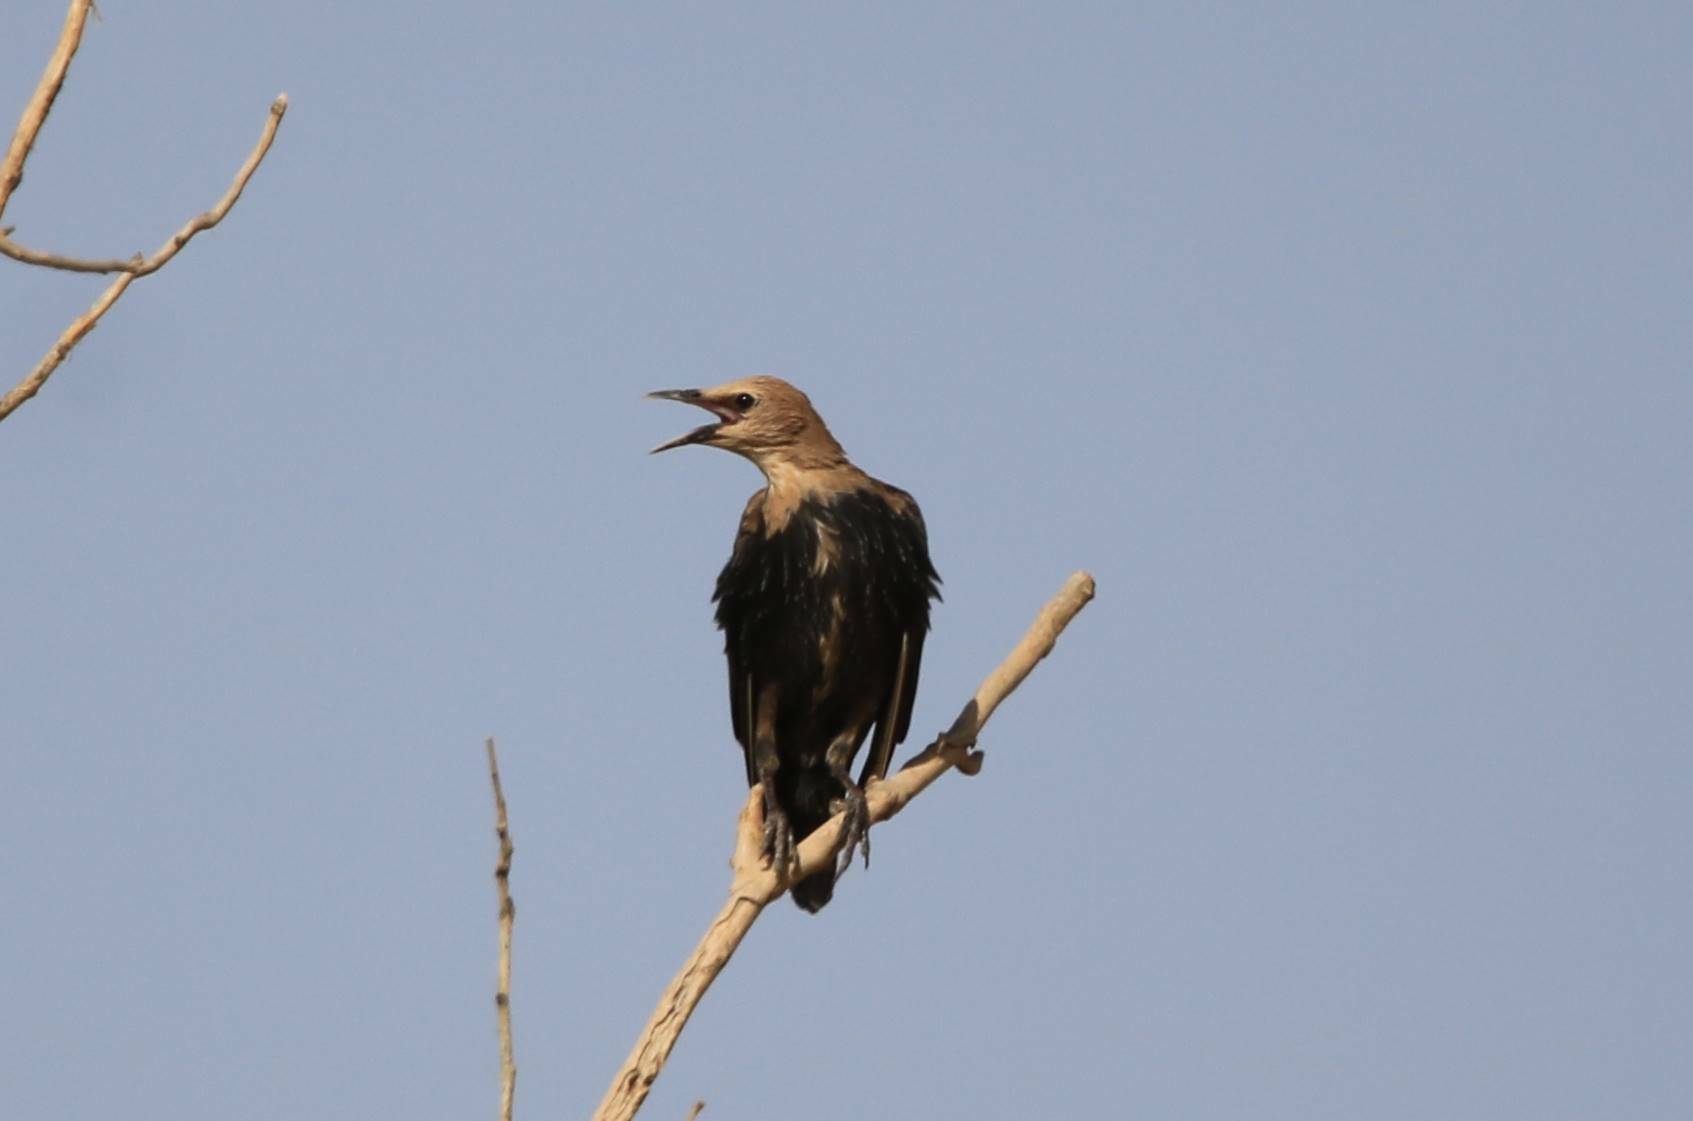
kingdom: Animalia
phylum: Chordata
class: Aves
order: Passeriformes
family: Sturnidae
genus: Sturnus
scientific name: Sturnus vulgaris
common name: Common starling
